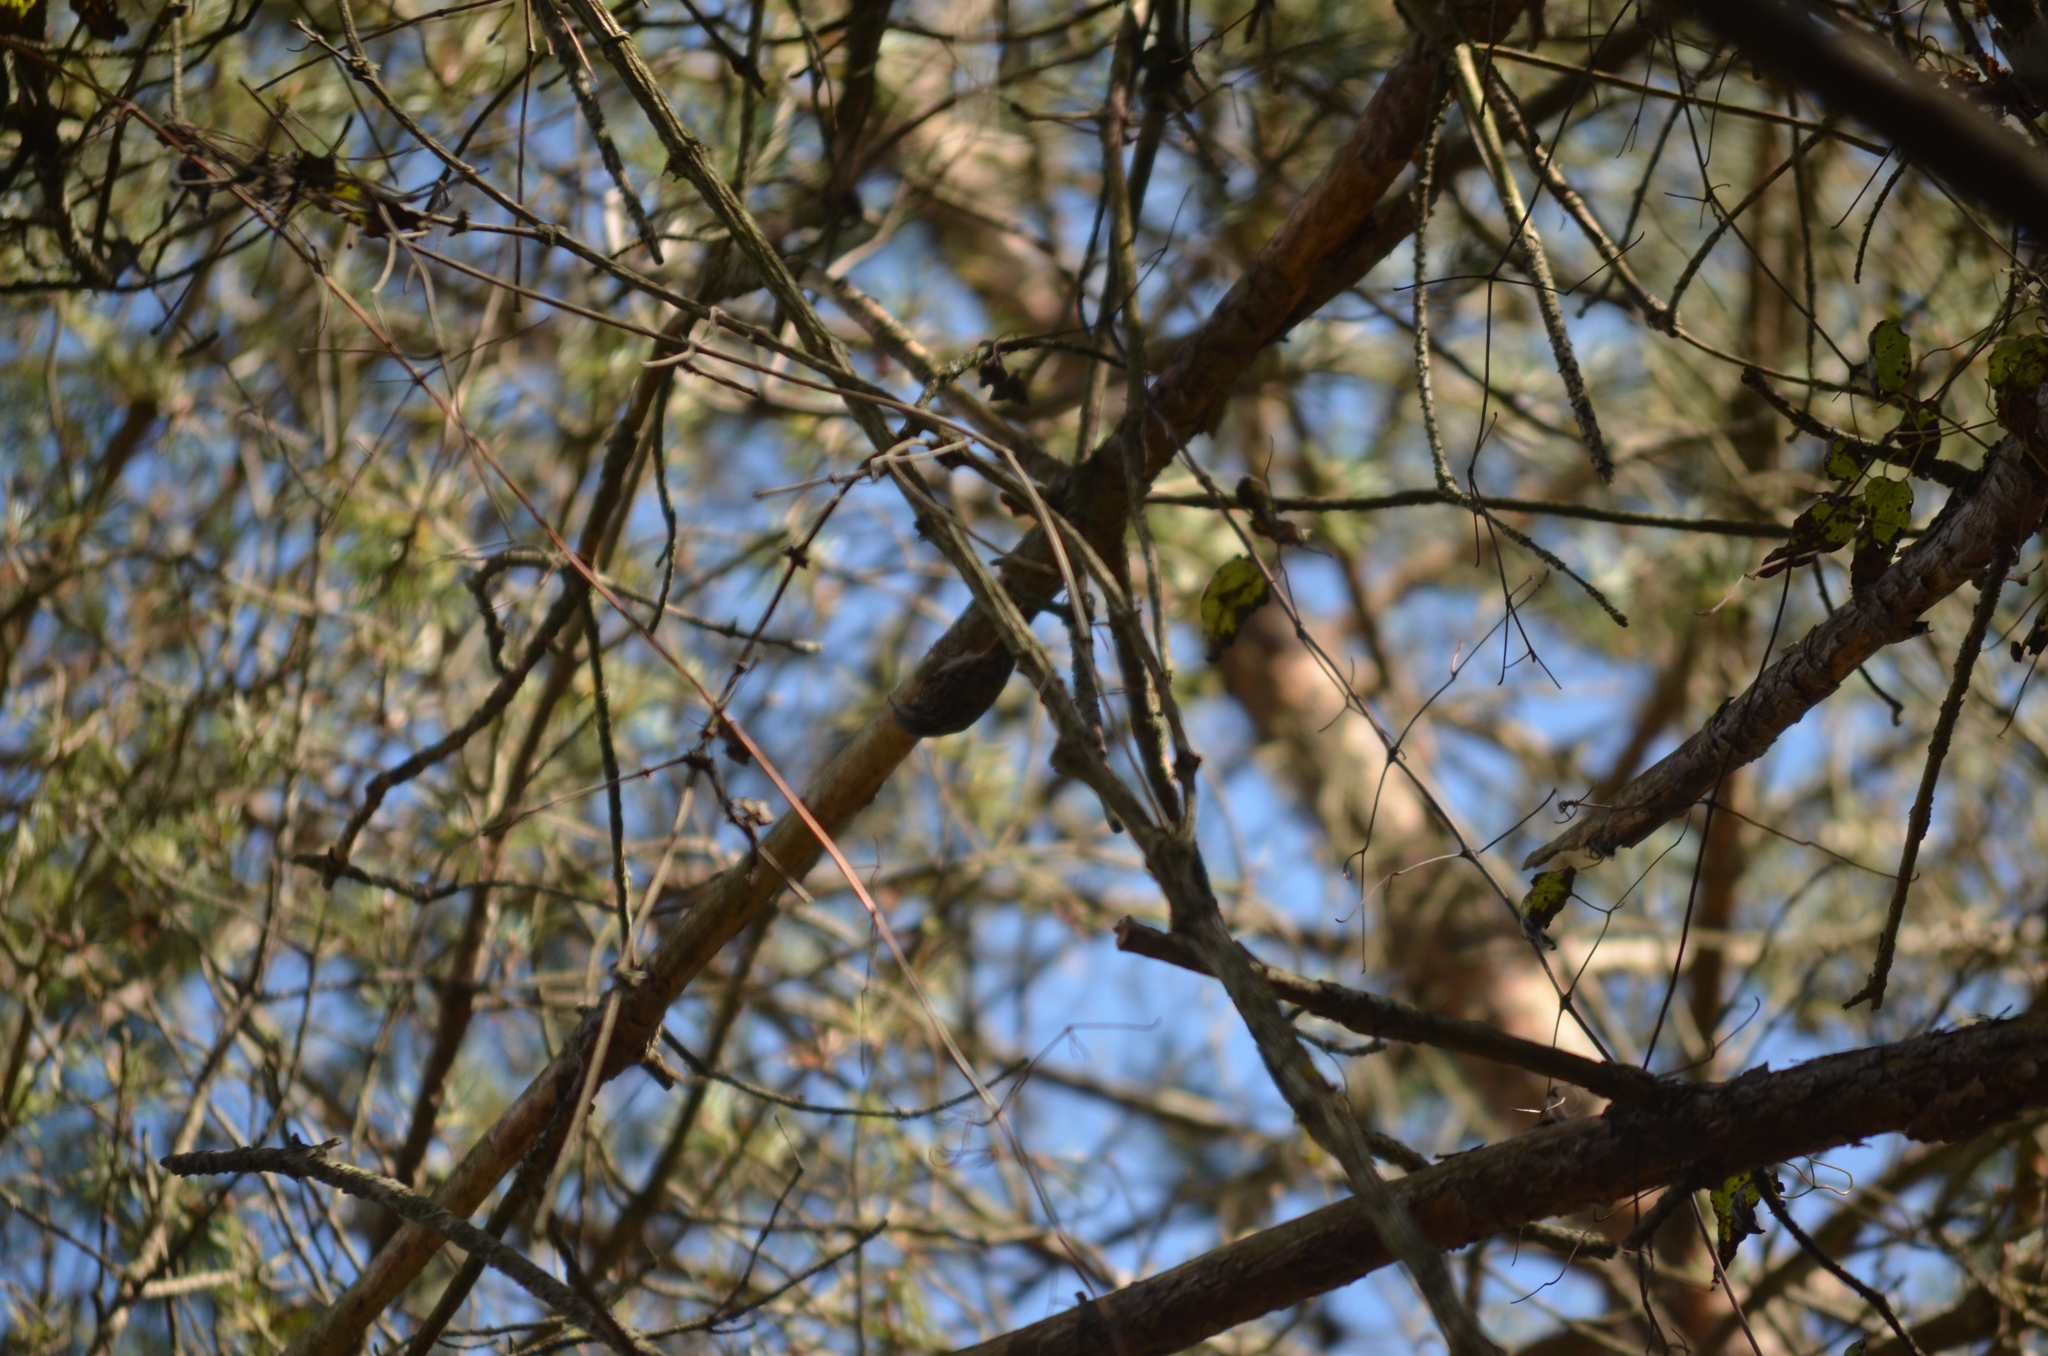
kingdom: Animalia
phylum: Chordata
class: Aves
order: Passeriformes
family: Certhiidae
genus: Certhia
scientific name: Certhia brachydactyla
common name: Short-toed treecreeper
